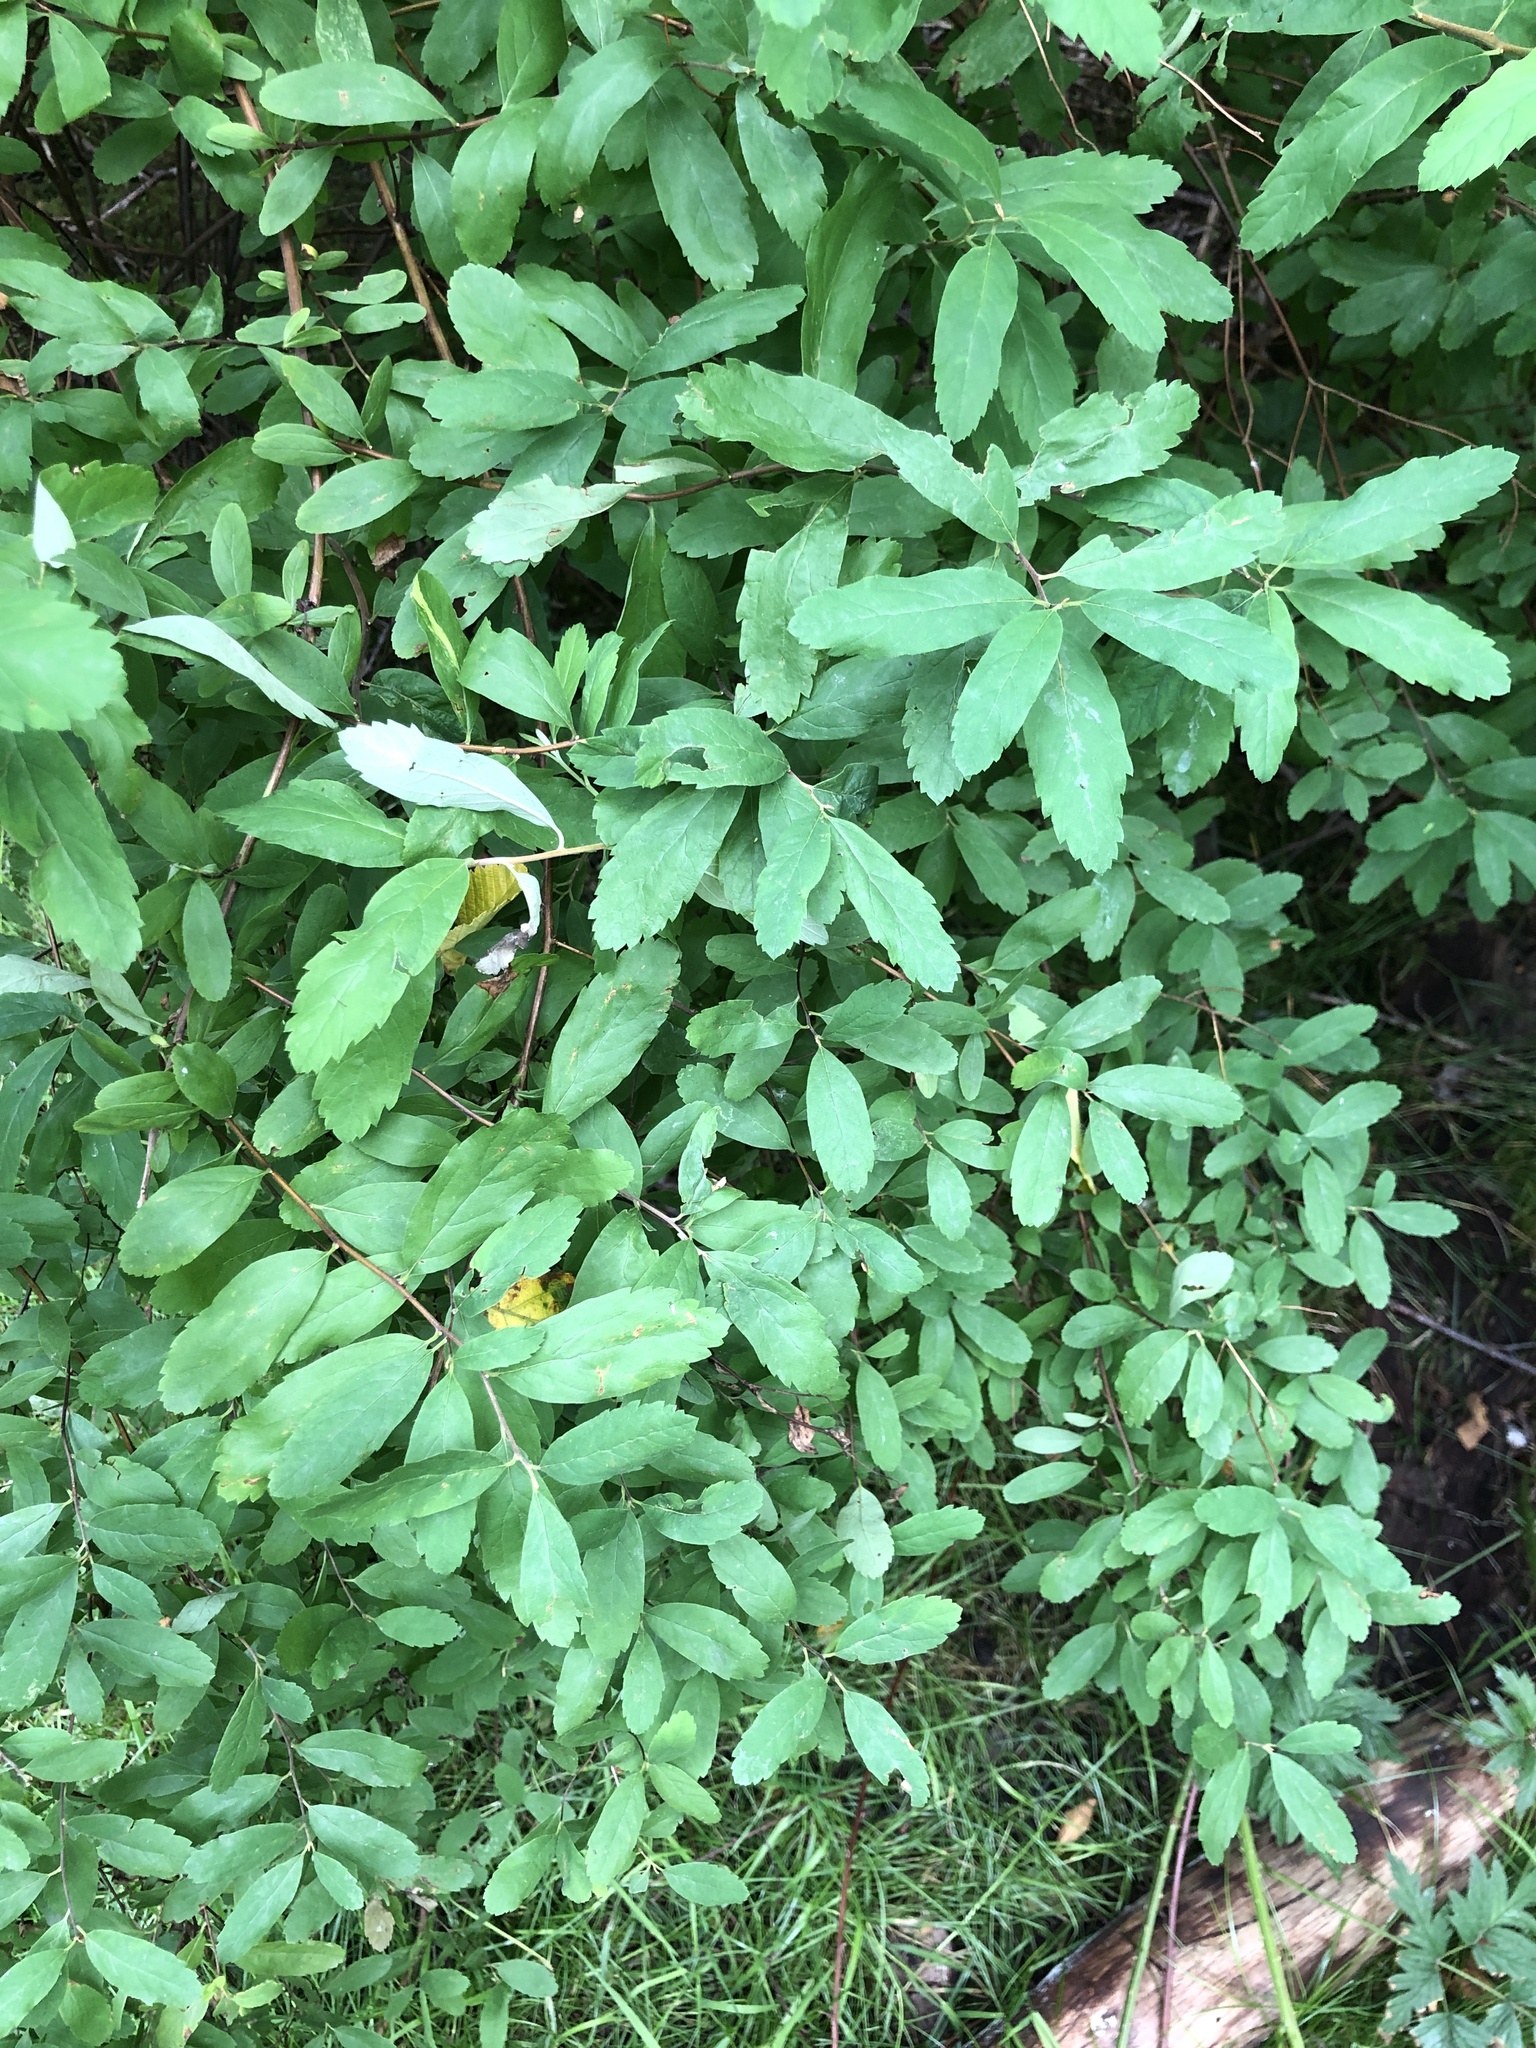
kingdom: Plantae
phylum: Tracheophyta
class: Magnoliopsida
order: Rosales
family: Rosaceae
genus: Spiraea
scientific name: Spiraea douglasii
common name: Steeplebush
